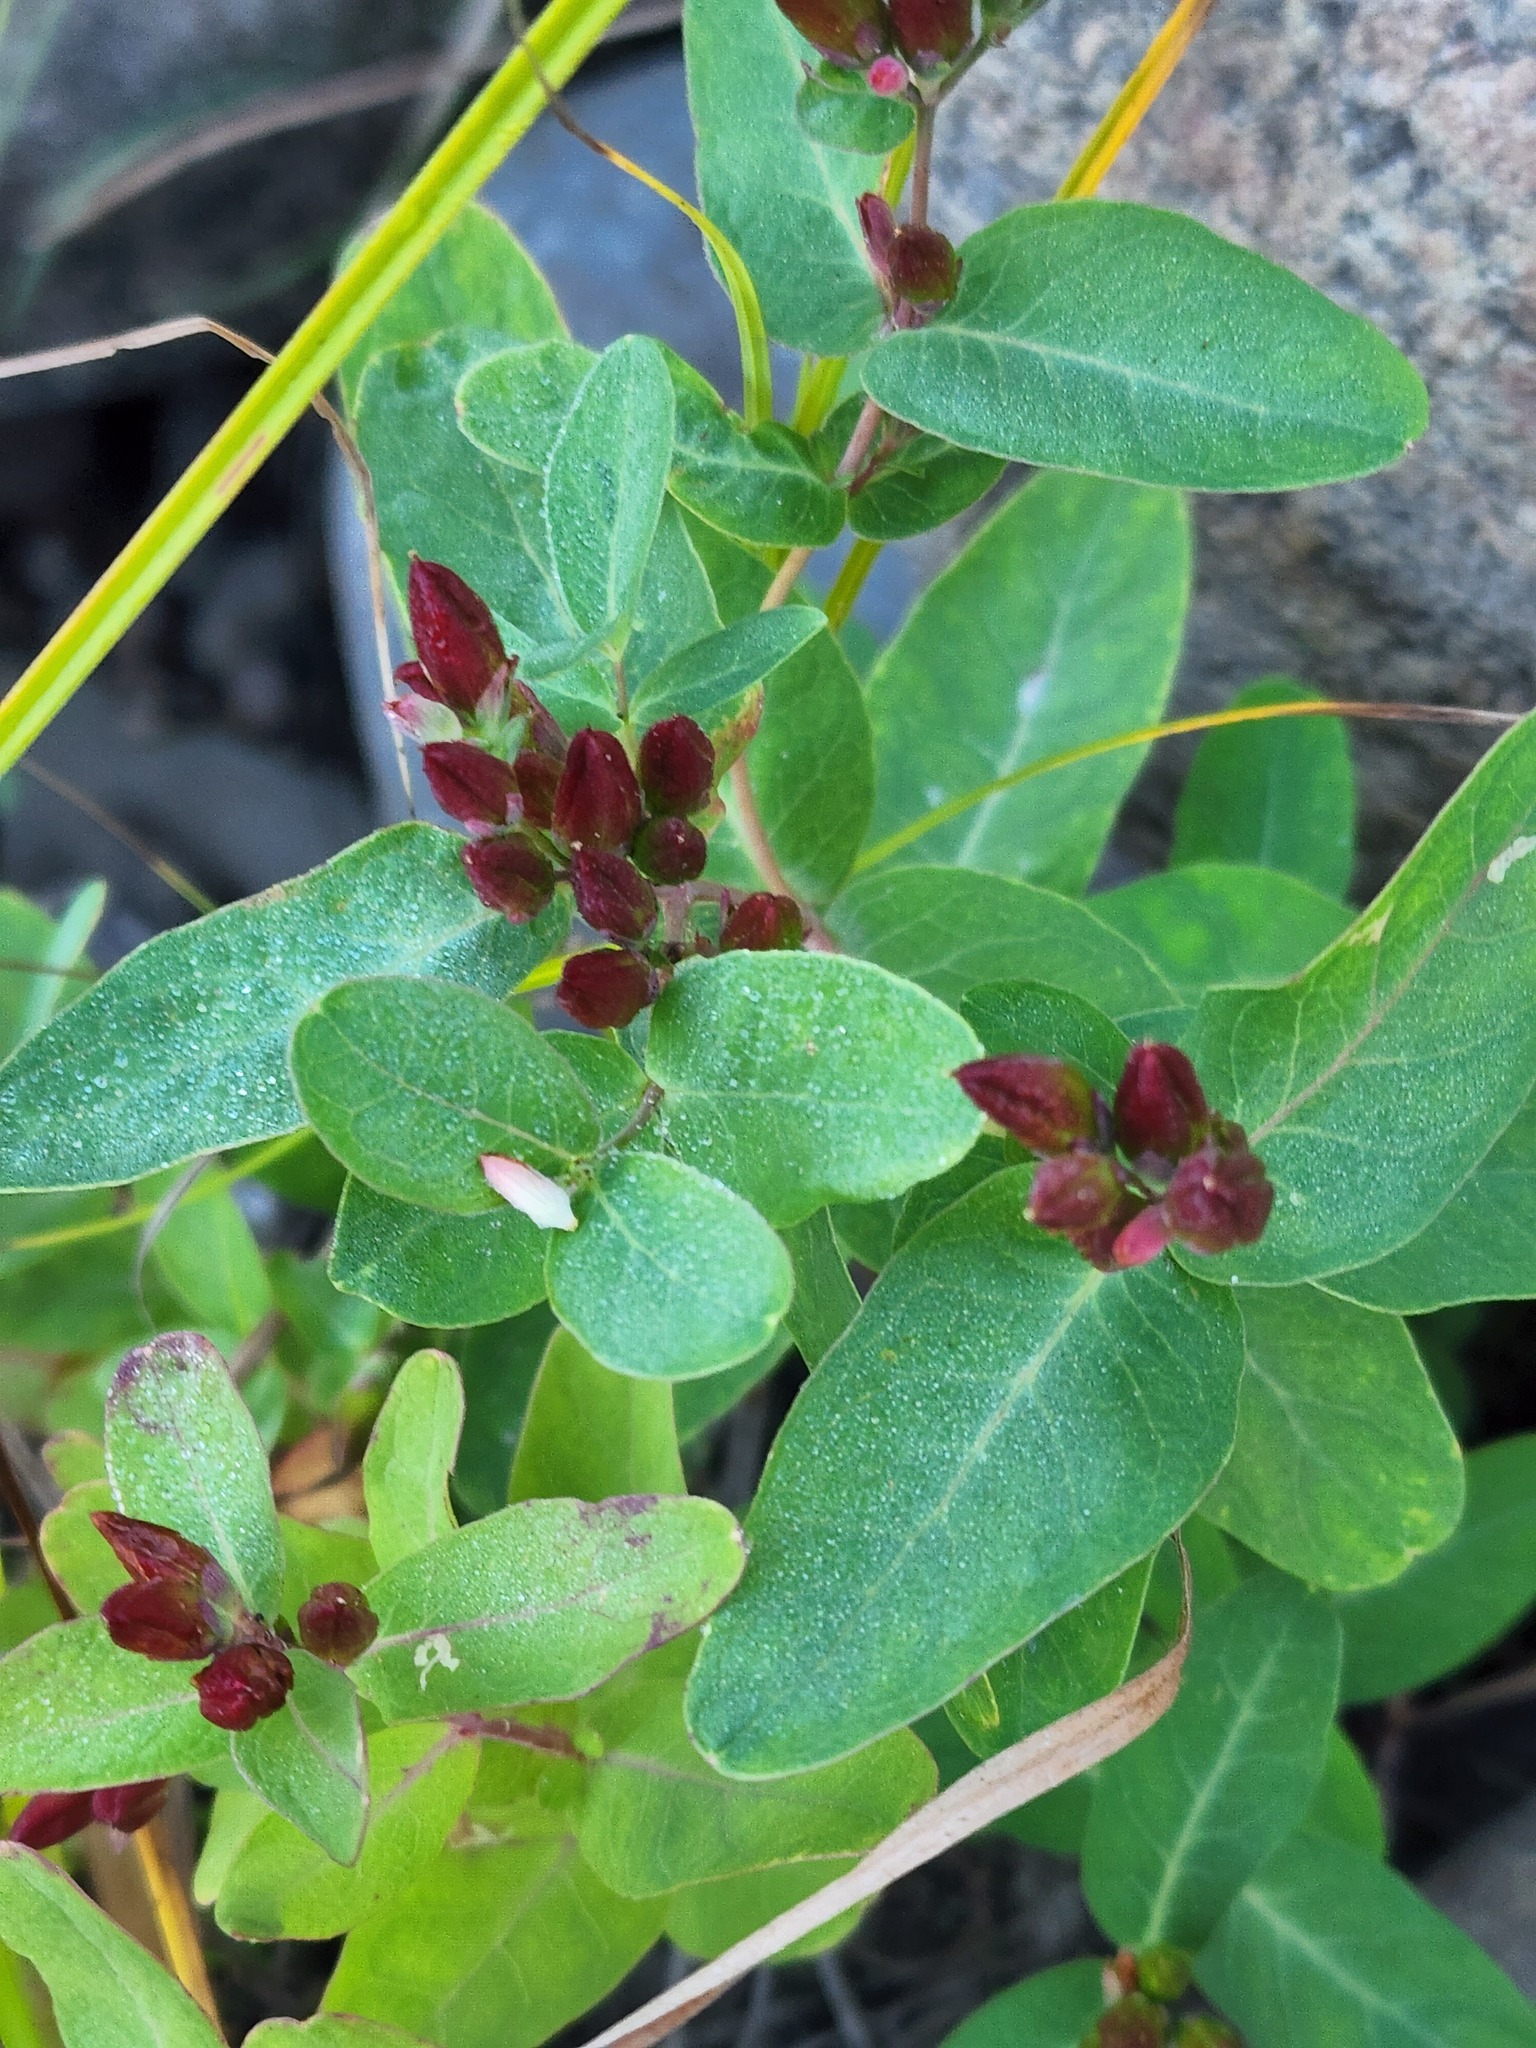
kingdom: Plantae
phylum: Tracheophyta
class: Magnoliopsida
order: Malpighiales
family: Hypericaceae
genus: Triadenum
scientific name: Triadenum fraseri
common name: Fraser's marsh st. johnswort
